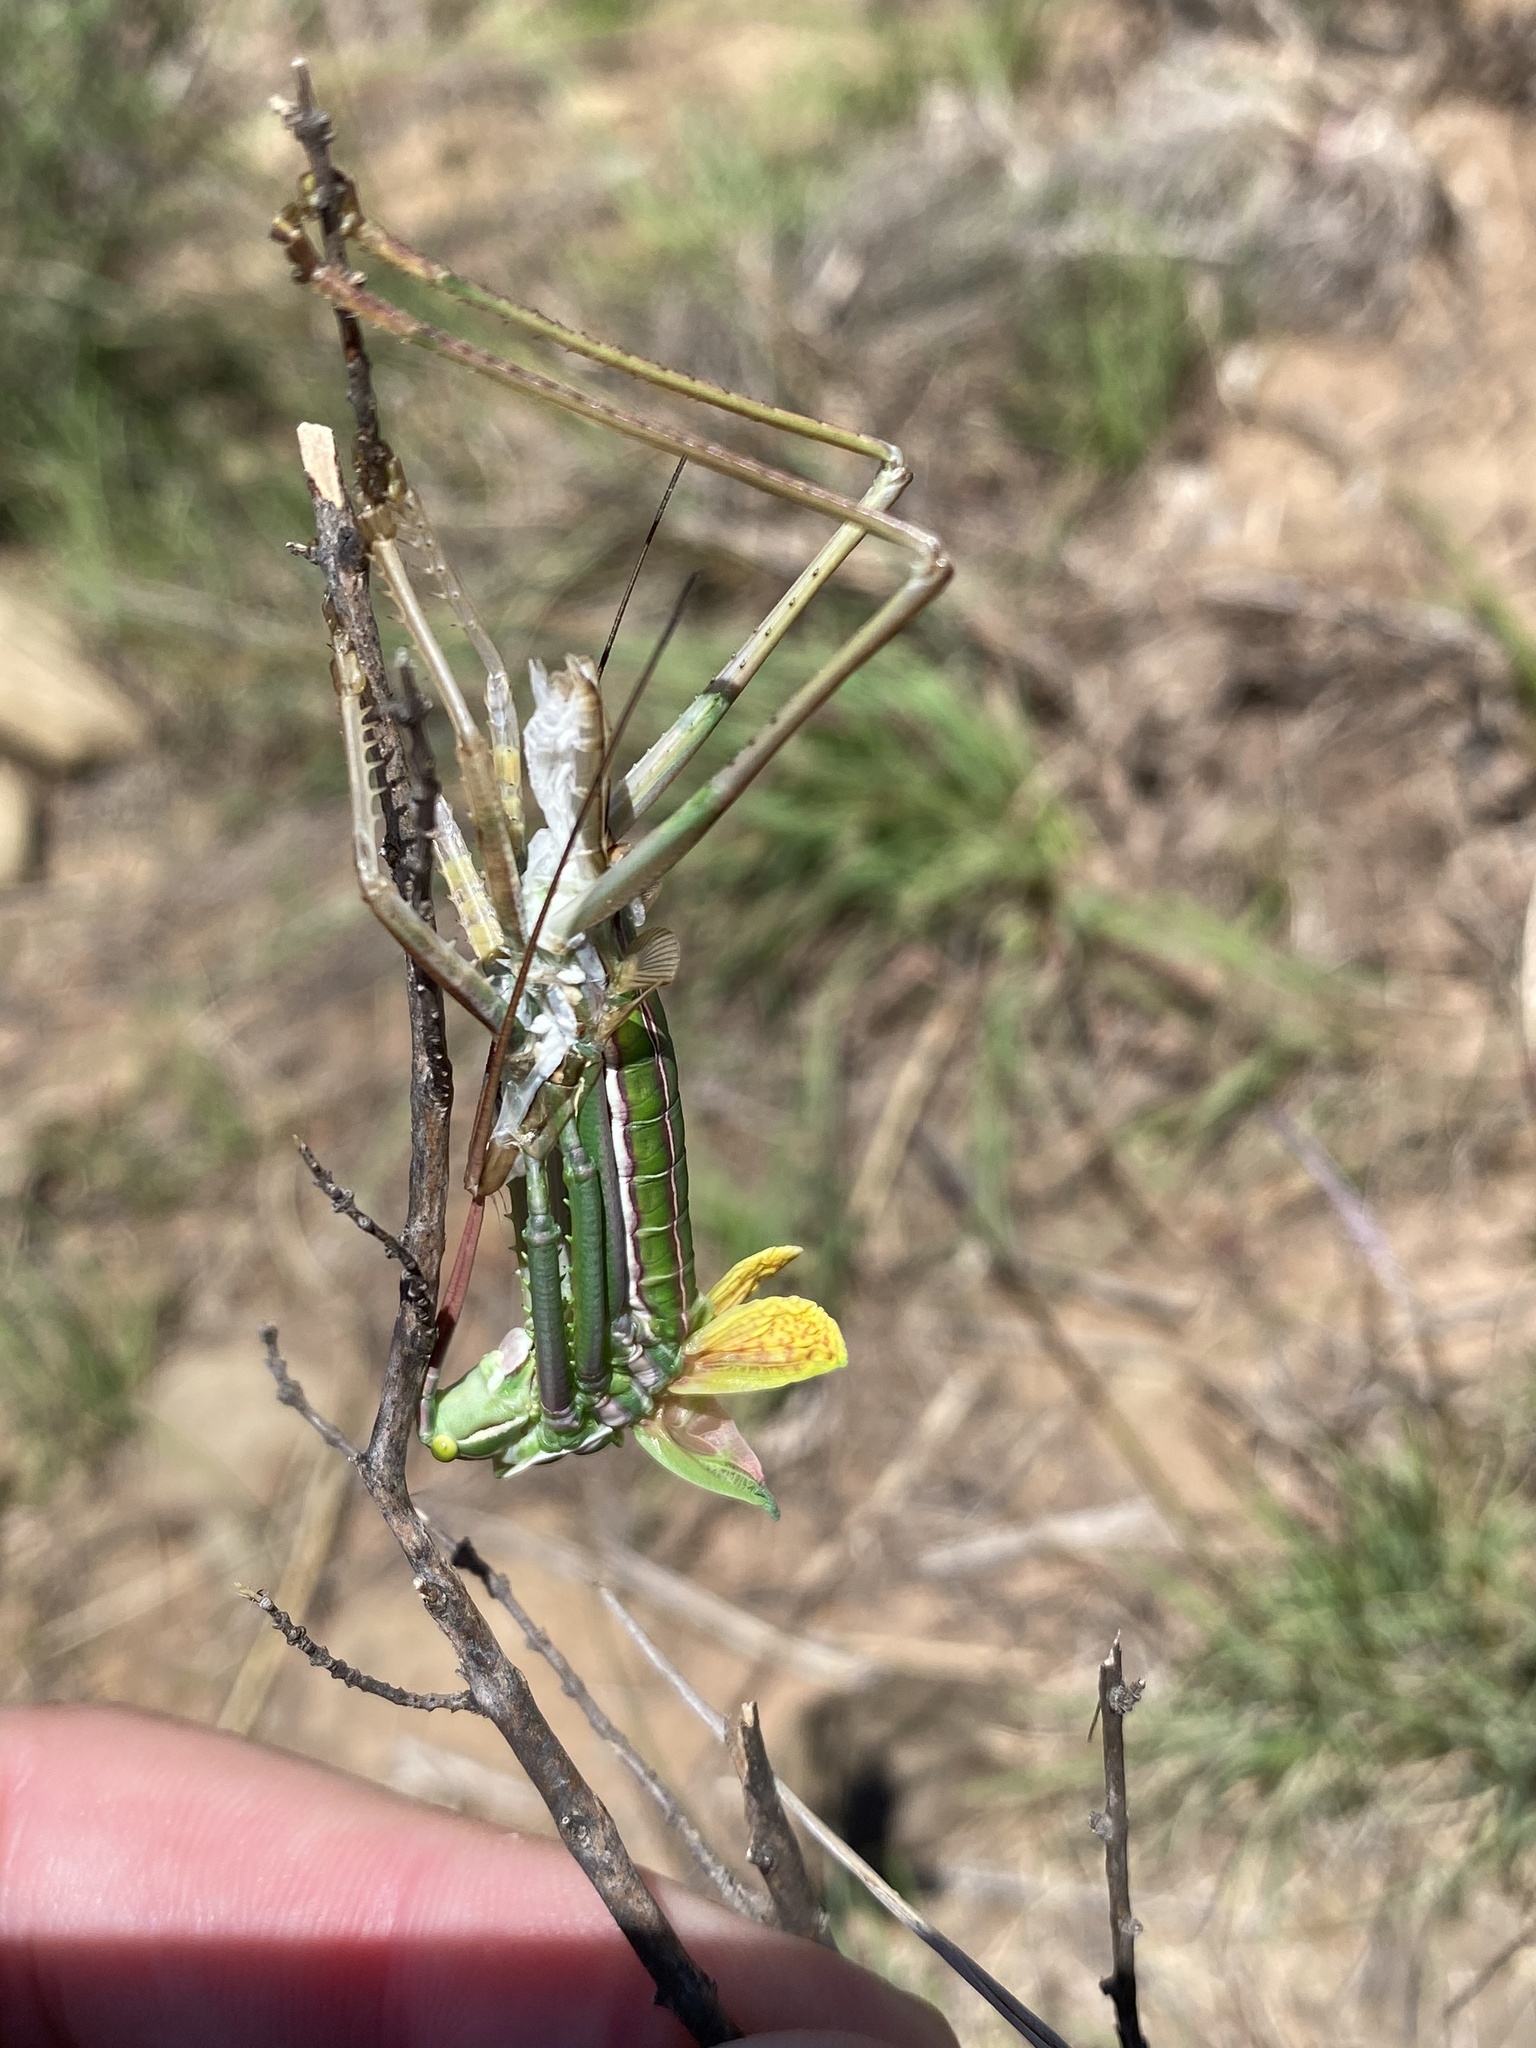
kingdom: Animalia
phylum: Arthropoda
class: Insecta
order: Orthoptera
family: Tettigoniidae
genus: Clonia
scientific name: Clonia tessellata
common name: Yellow-winged clonia
